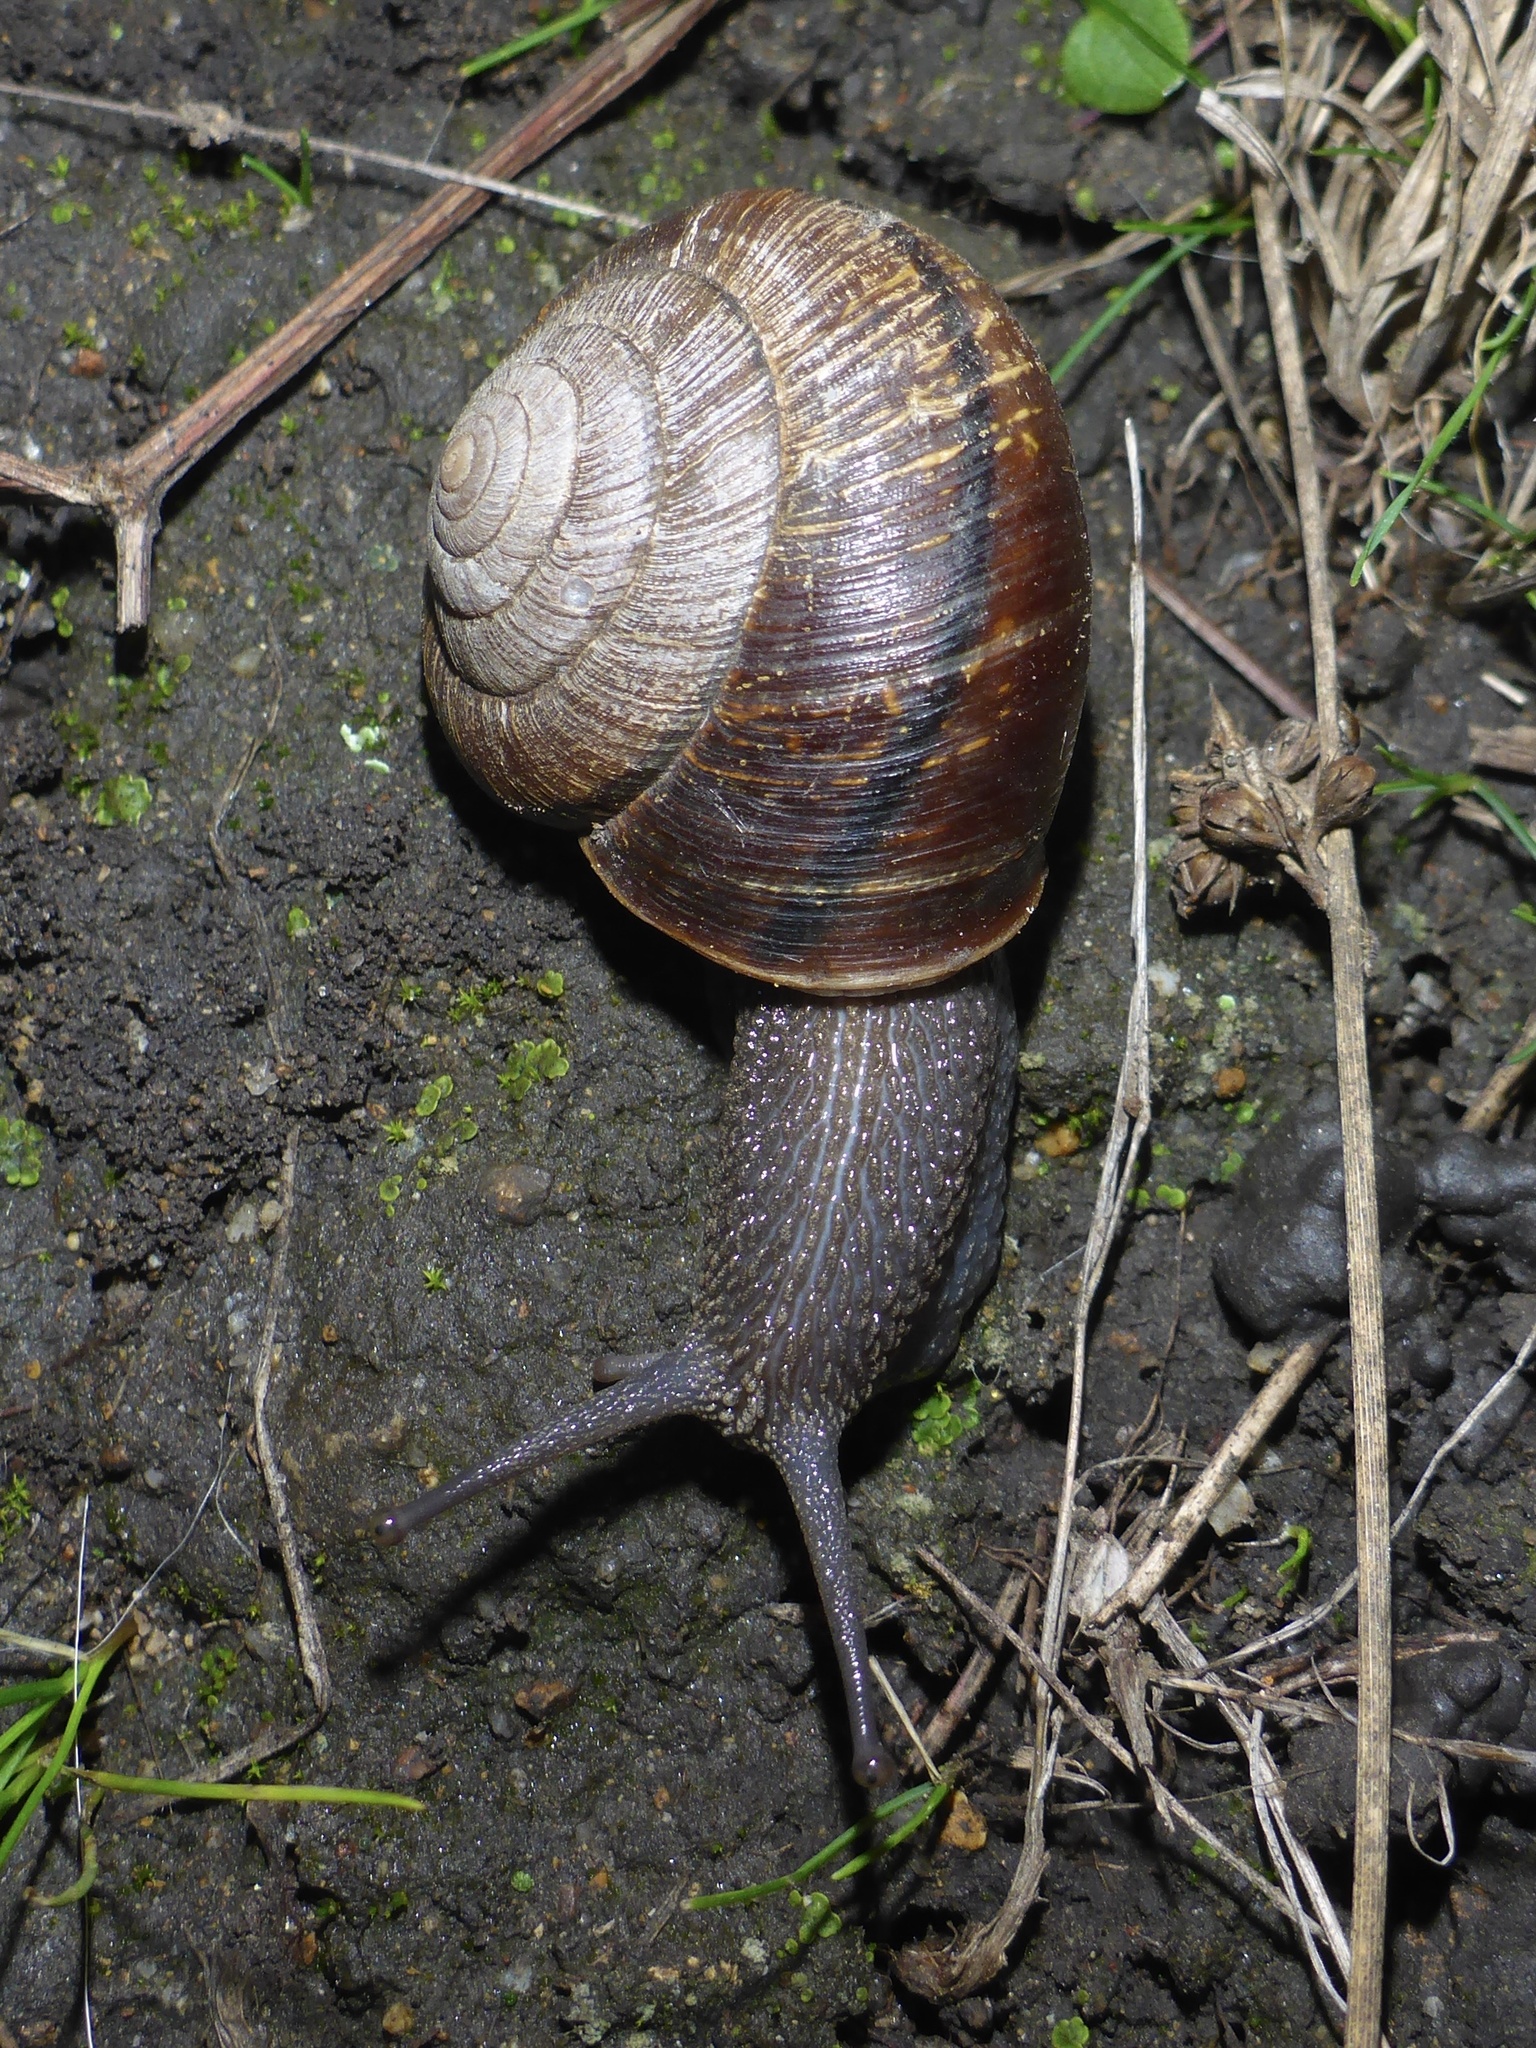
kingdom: Animalia
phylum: Mollusca
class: Gastropoda
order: Stylommatophora
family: Xanthonychidae
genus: Helminthoglypta
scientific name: Helminthoglypta arrosa
